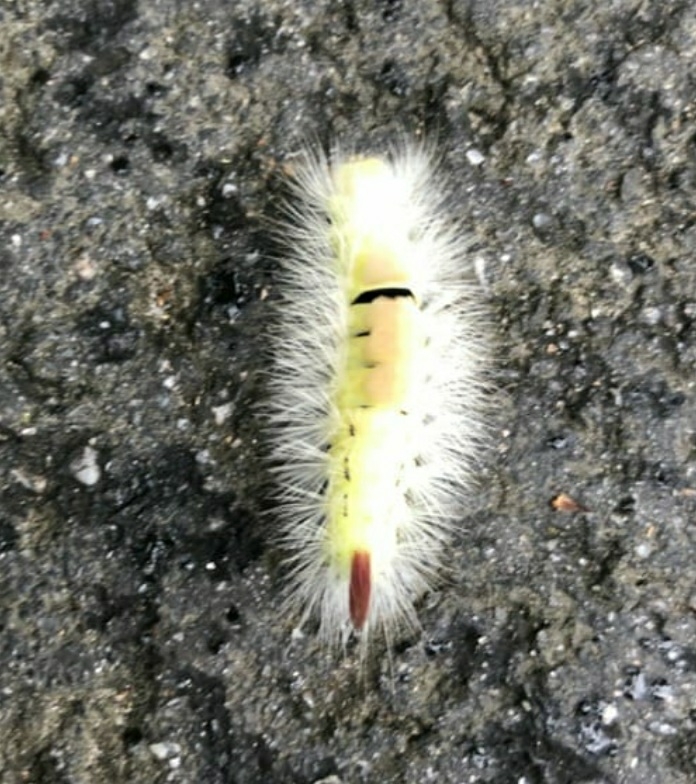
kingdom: Animalia
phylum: Arthropoda
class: Insecta
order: Lepidoptera
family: Erebidae
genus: Calliteara
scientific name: Calliteara pudibunda
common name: Pale tussock
